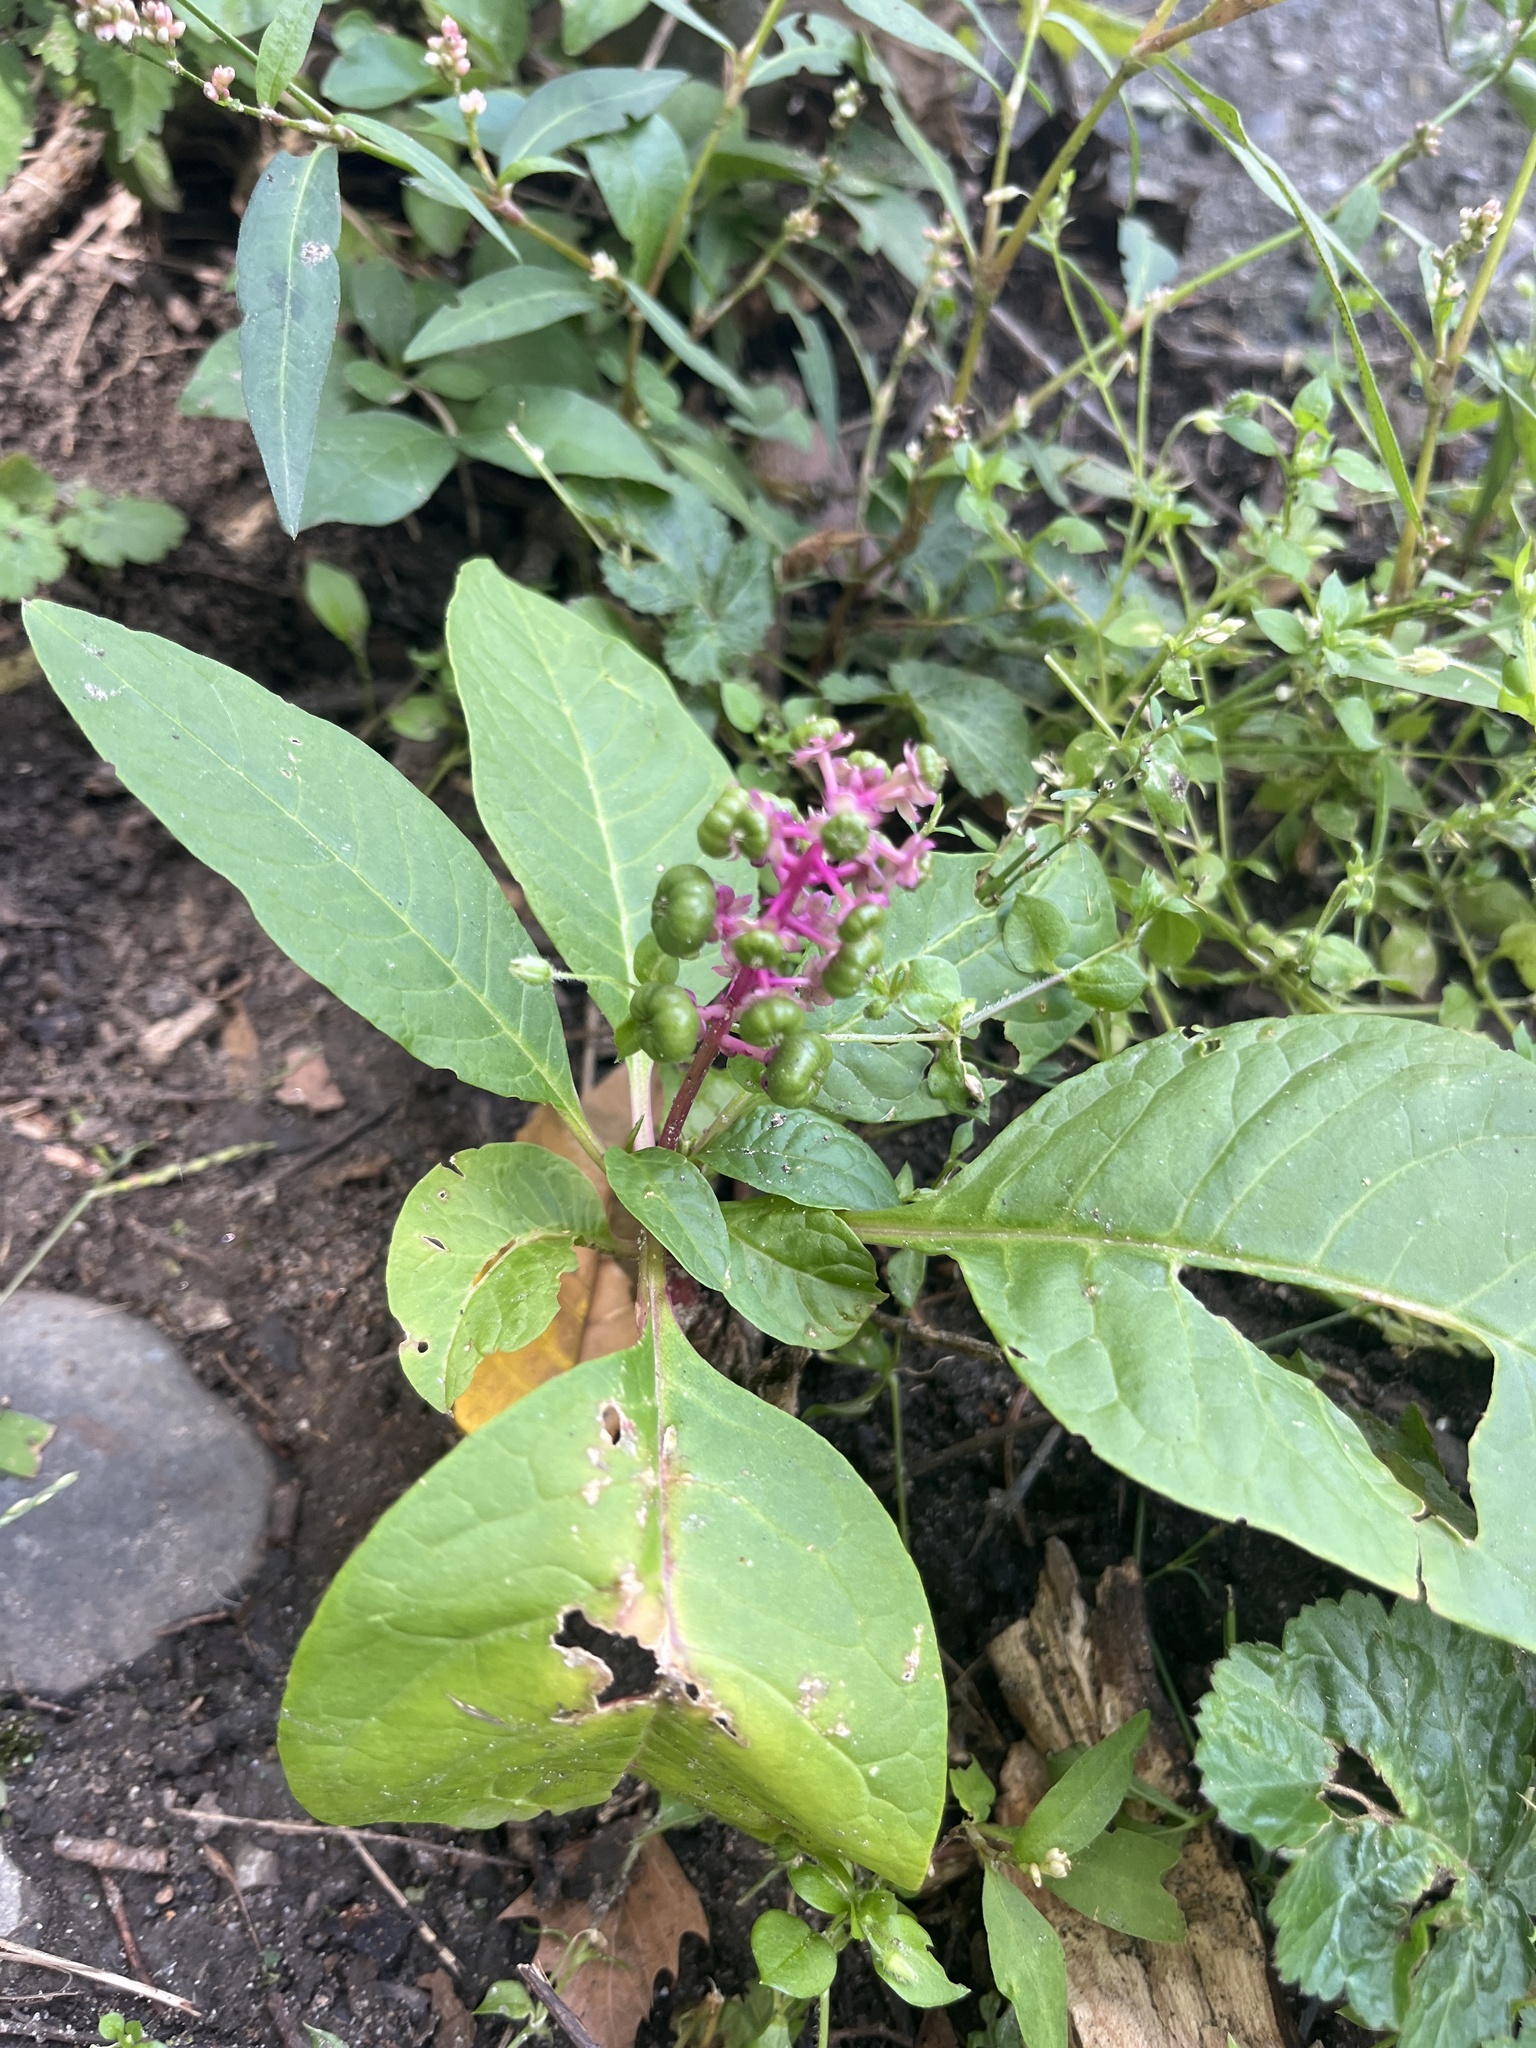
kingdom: Plantae
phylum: Tracheophyta
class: Magnoliopsida
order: Caryophyllales
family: Phytolaccaceae
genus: Phytolacca
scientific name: Phytolacca americana
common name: American pokeweed
